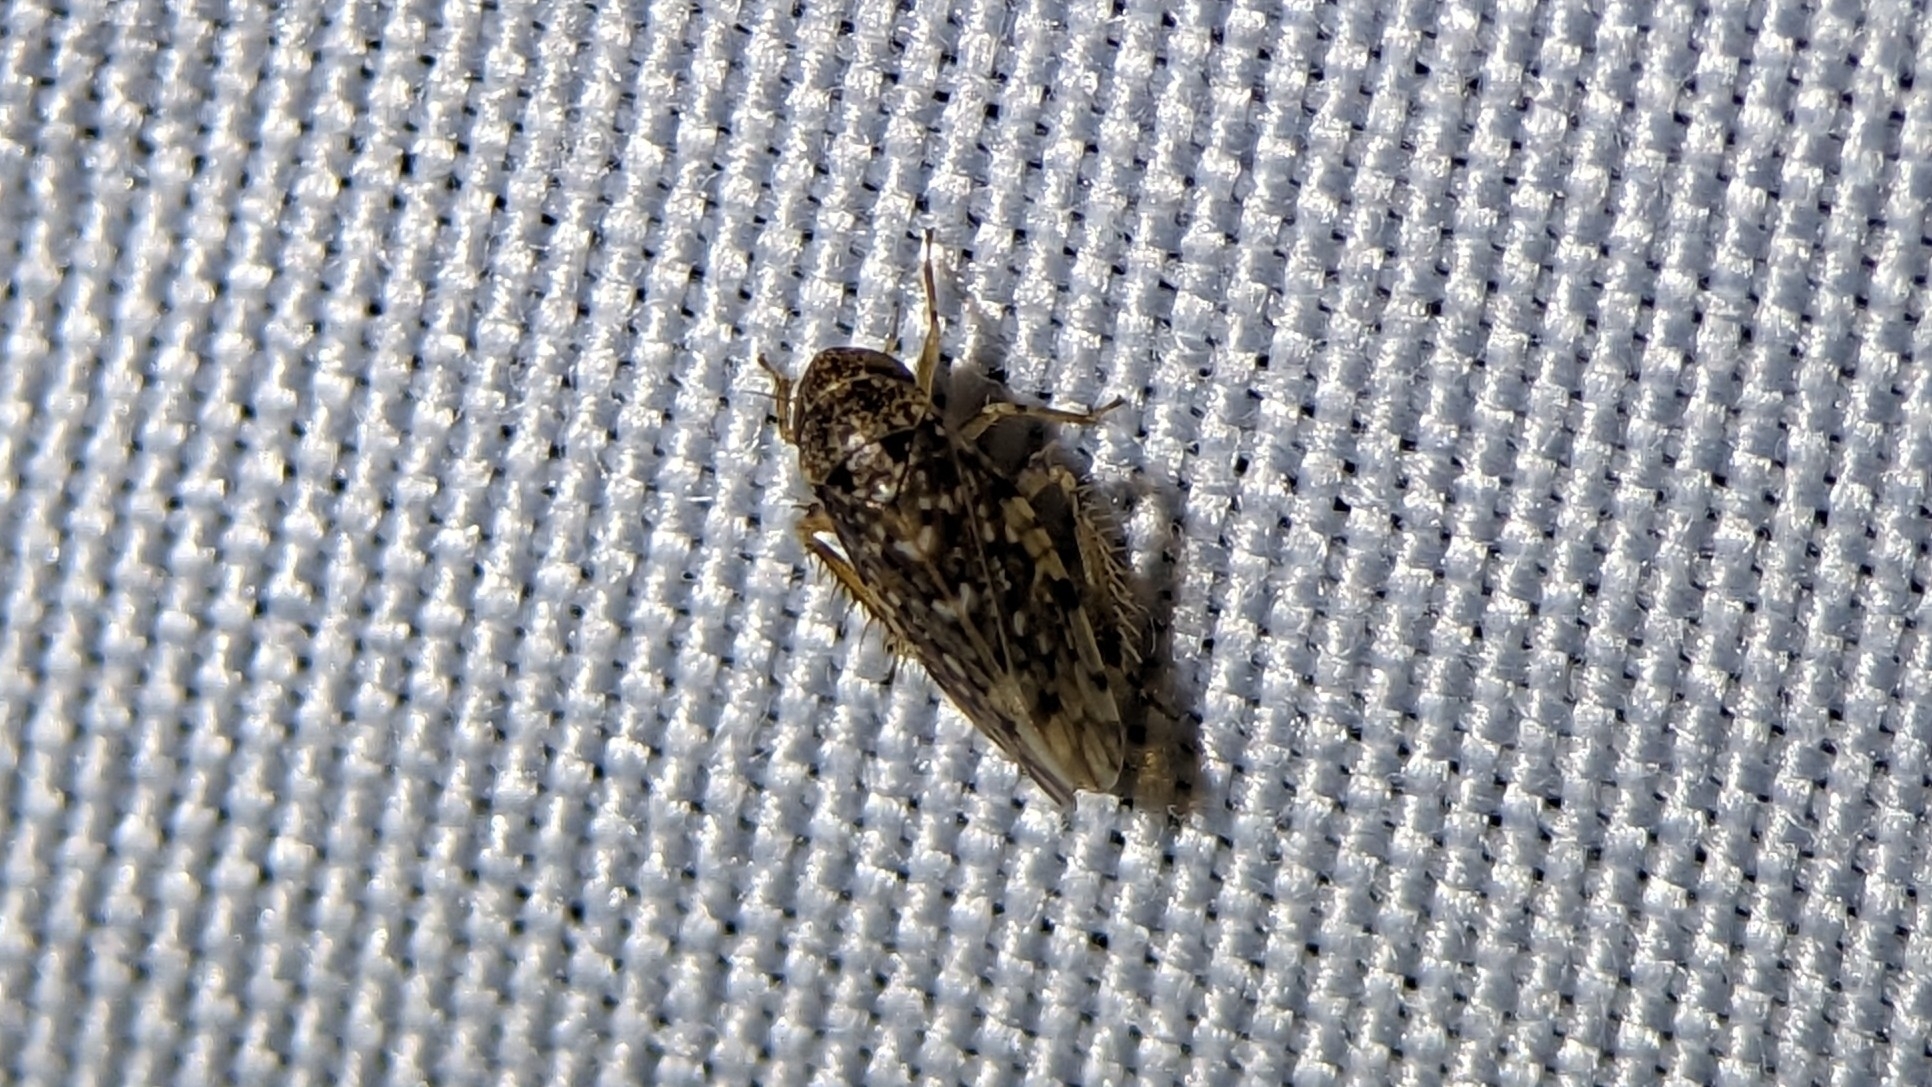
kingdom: Animalia
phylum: Arthropoda
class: Insecta
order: Hemiptera
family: Cicadellidae
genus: Xestocephalus
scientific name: Xestocephalus tessellatus
